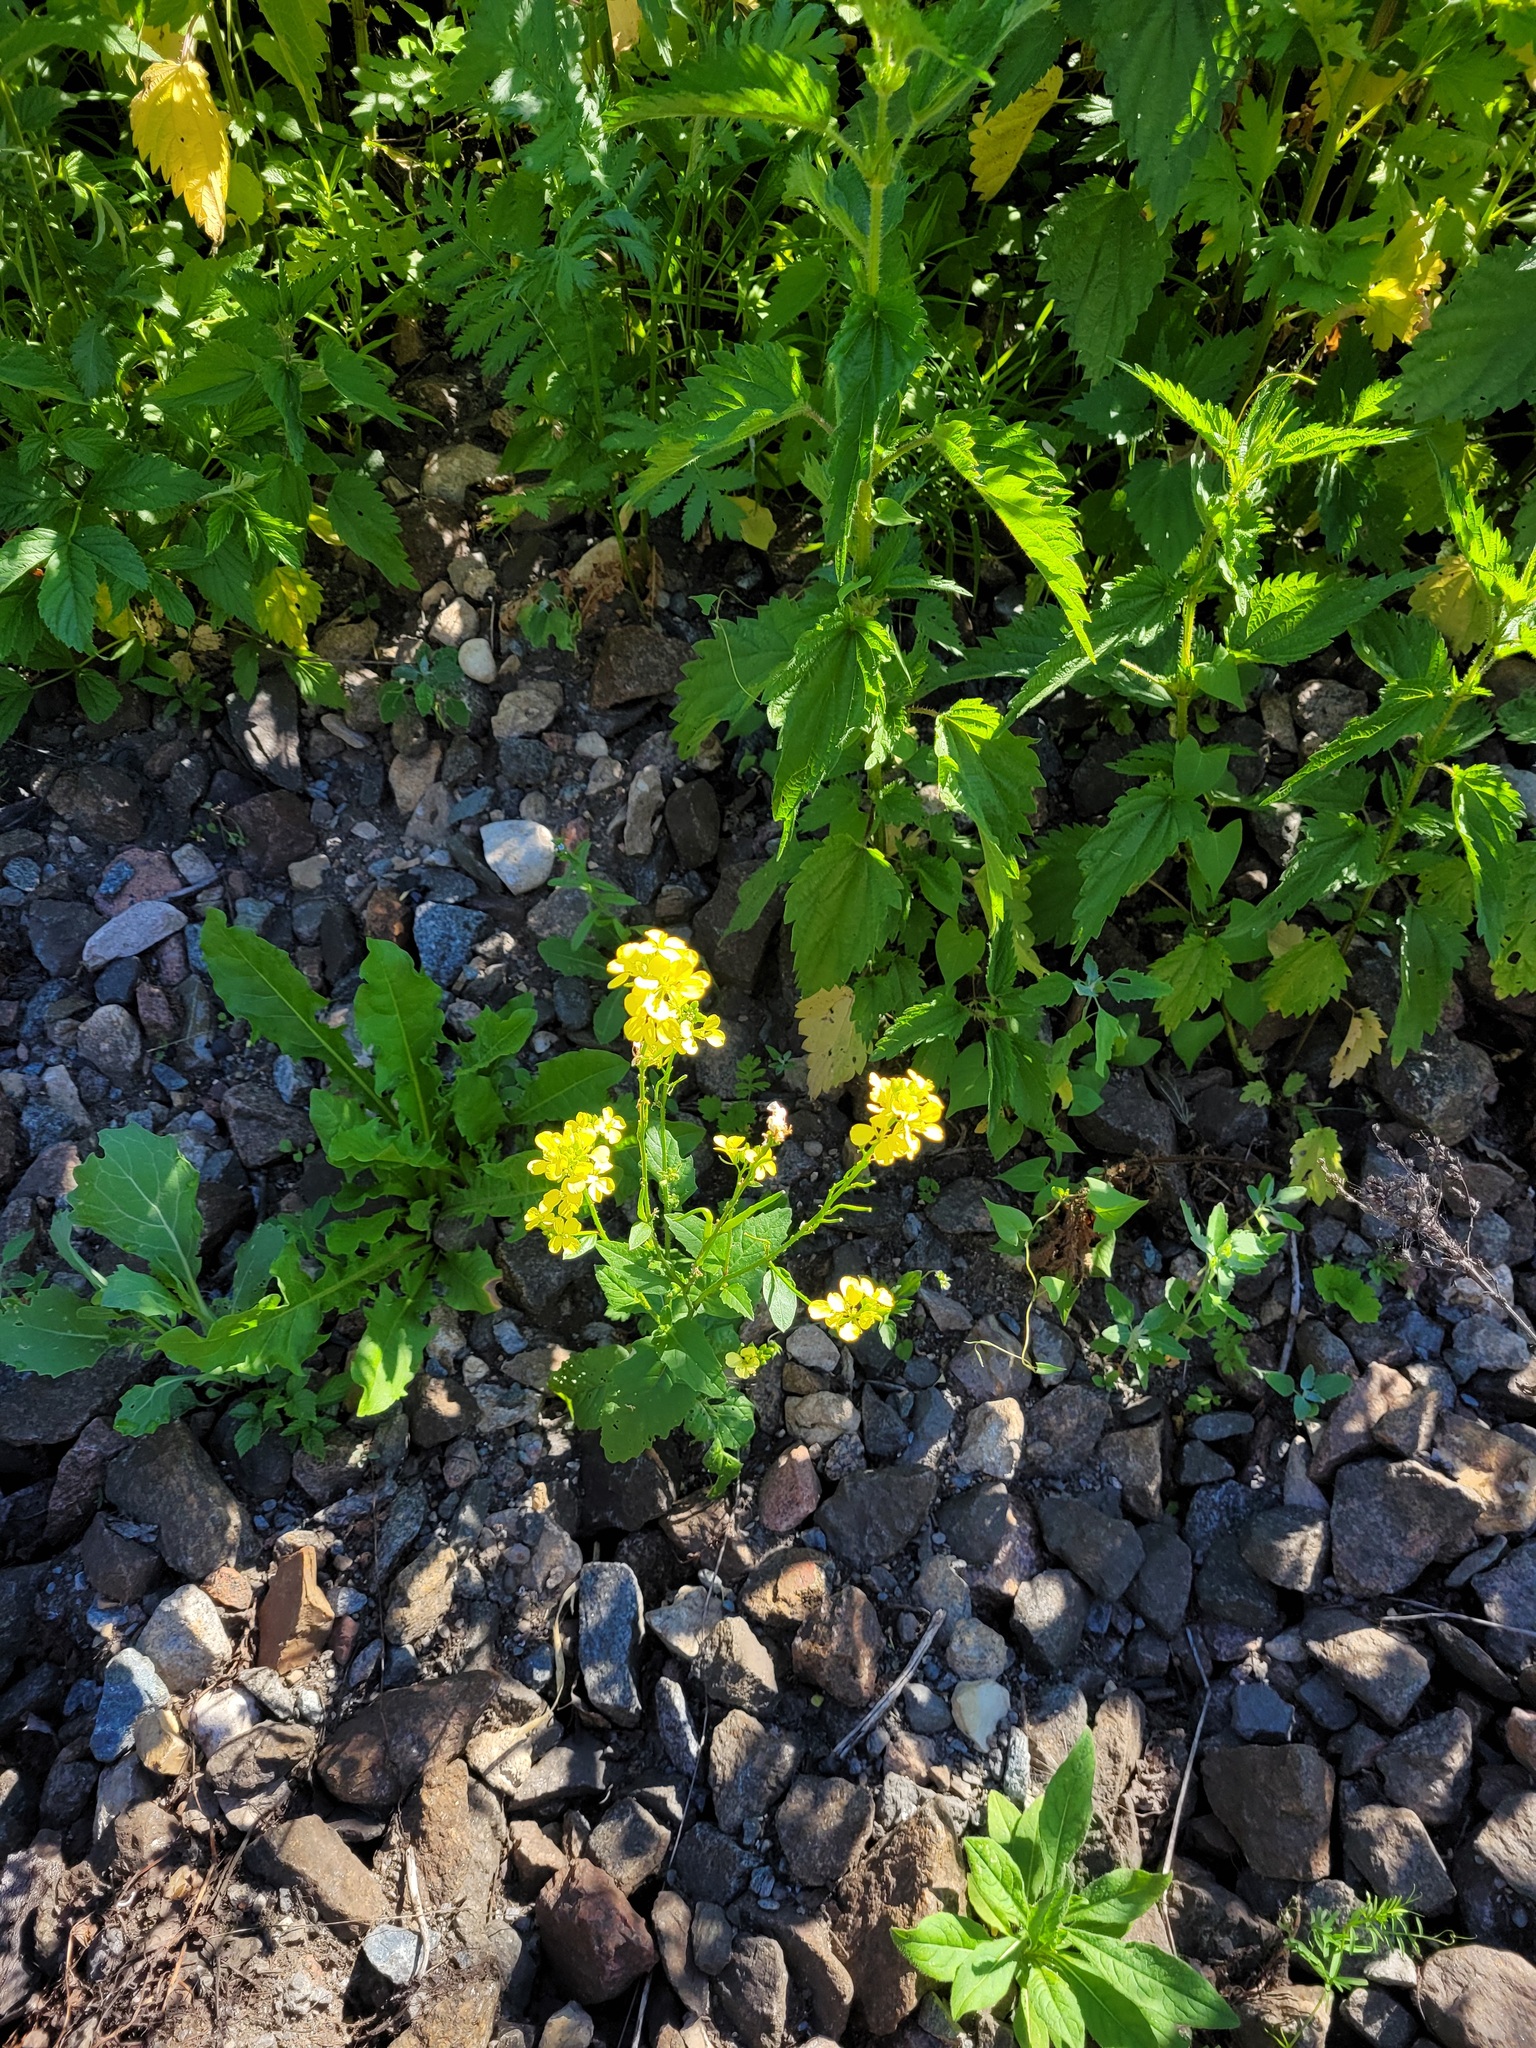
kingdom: Plantae
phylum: Tracheophyta
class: Magnoliopsida
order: Brassicales
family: Brassicaceae
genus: Sinapis
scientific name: Sinapis arvensis
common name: Charlock
